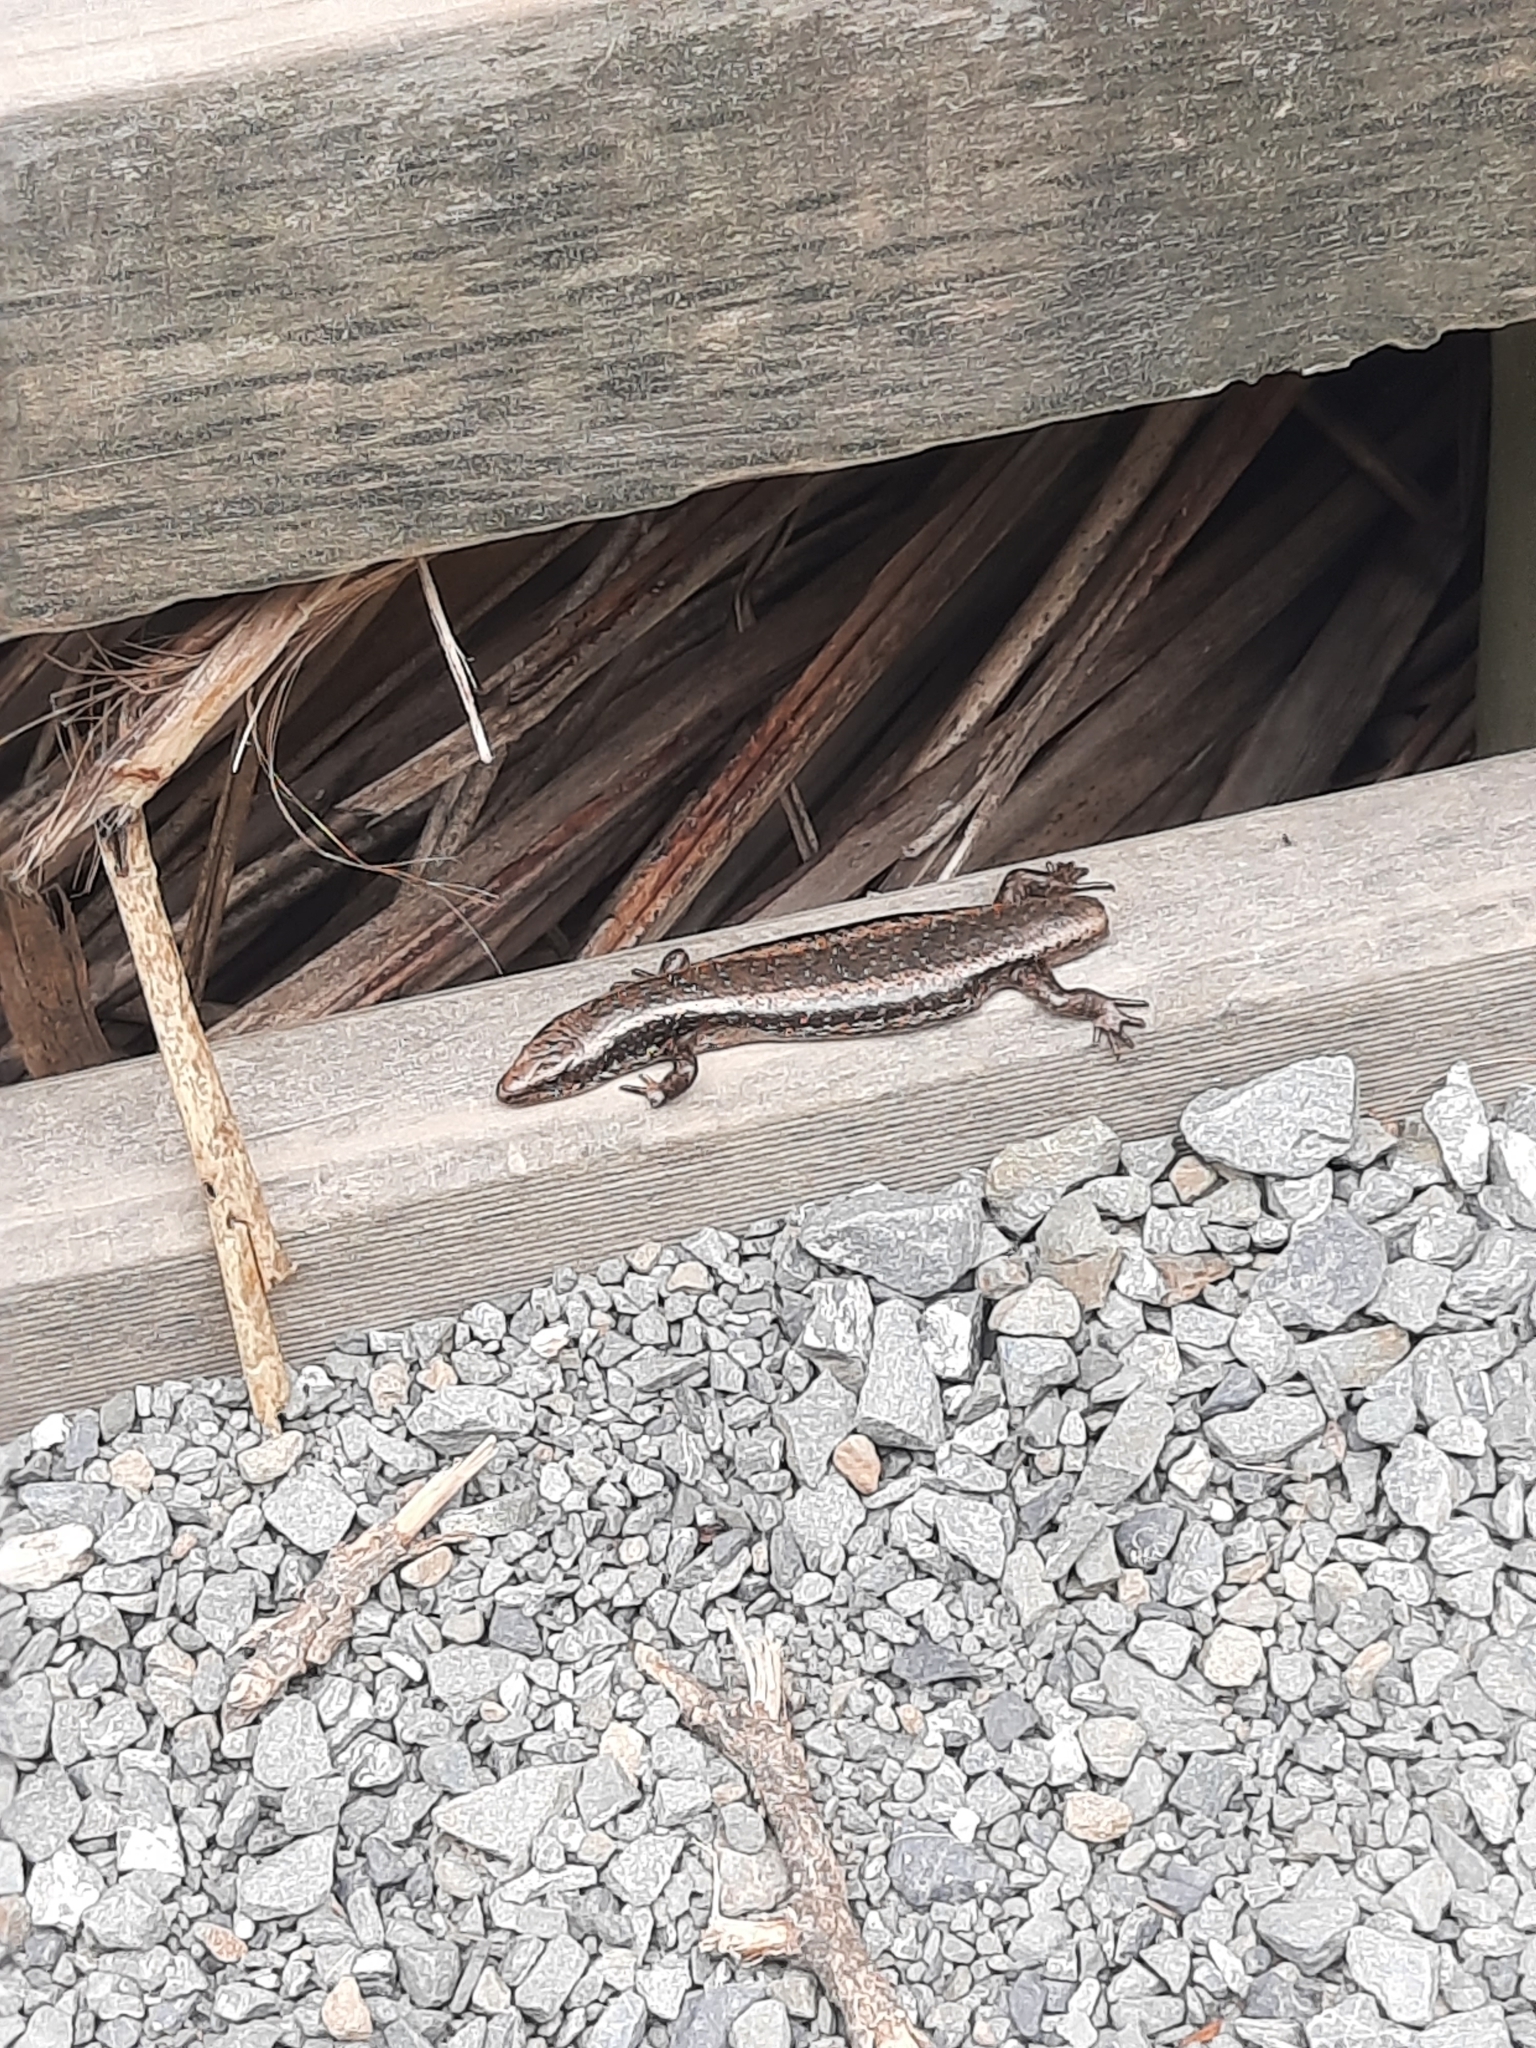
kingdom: Animalia
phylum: Chordata
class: Squamata
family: Scincidae
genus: Oligosoma
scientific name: Oligosoma kokowai
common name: Northern spotted skink
